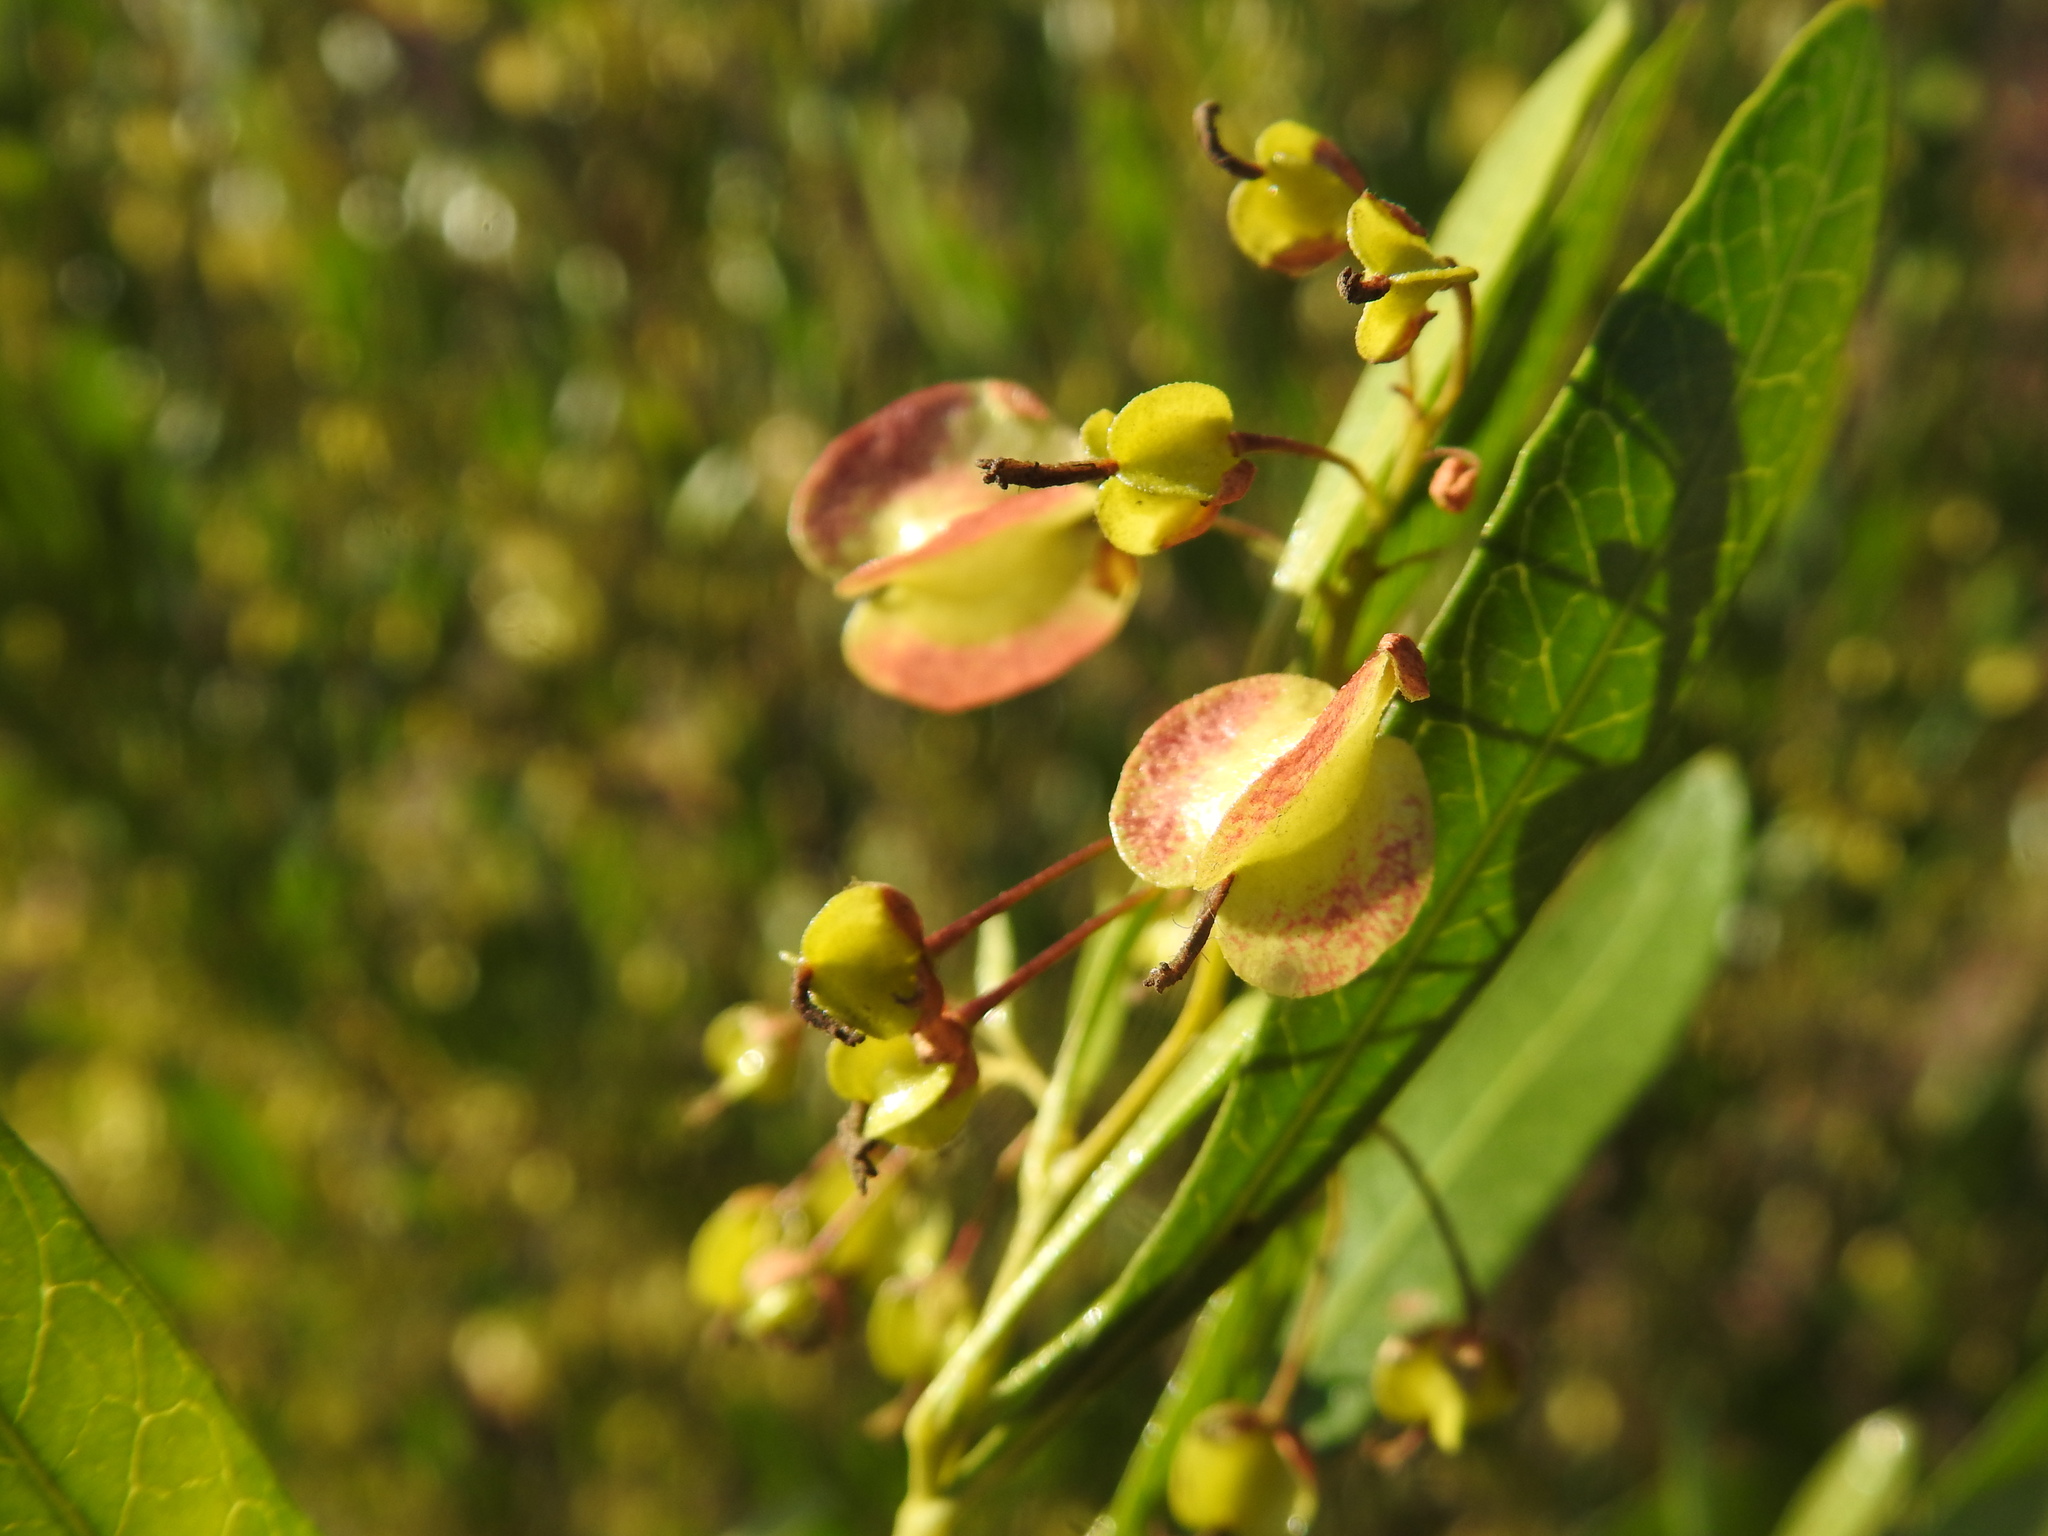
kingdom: Plantae
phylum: Tracheophyta
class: Magnoliopsida
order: Sapindales
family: Sapindaceae
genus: Dodonaea
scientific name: Dodonaea viscosa
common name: Hopbush
